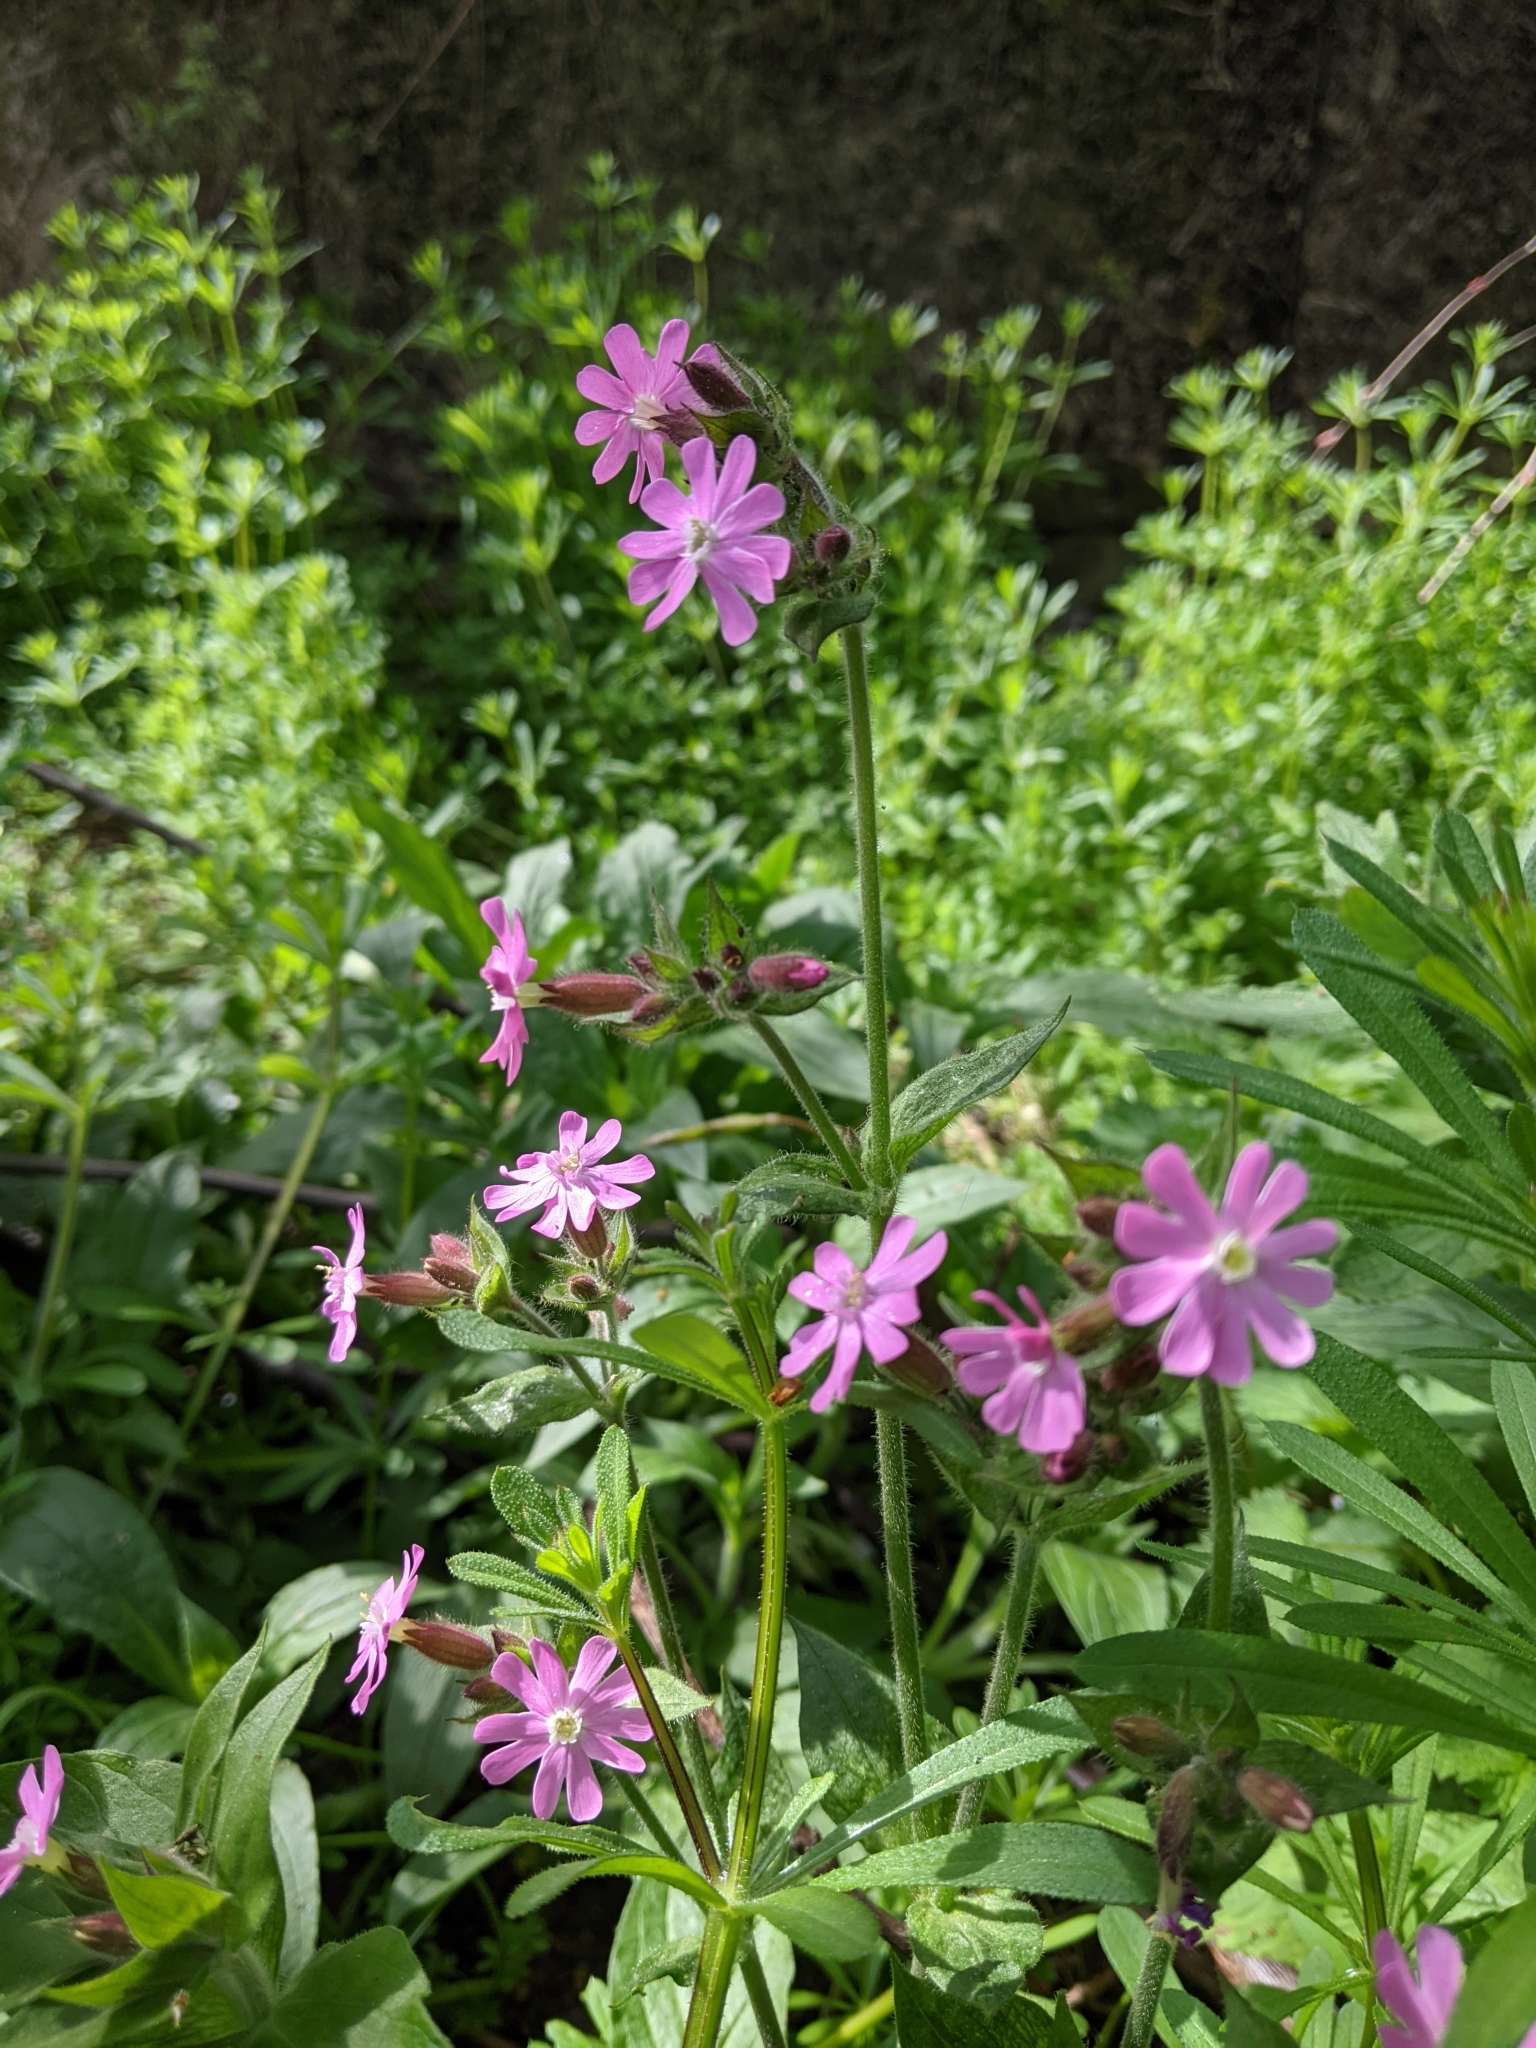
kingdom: Plantae
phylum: Tracheophyta
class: Magnoliopsida
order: Caryophyllales
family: Caryophyllaceae
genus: Silene
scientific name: Silene dioica
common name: Red campion
